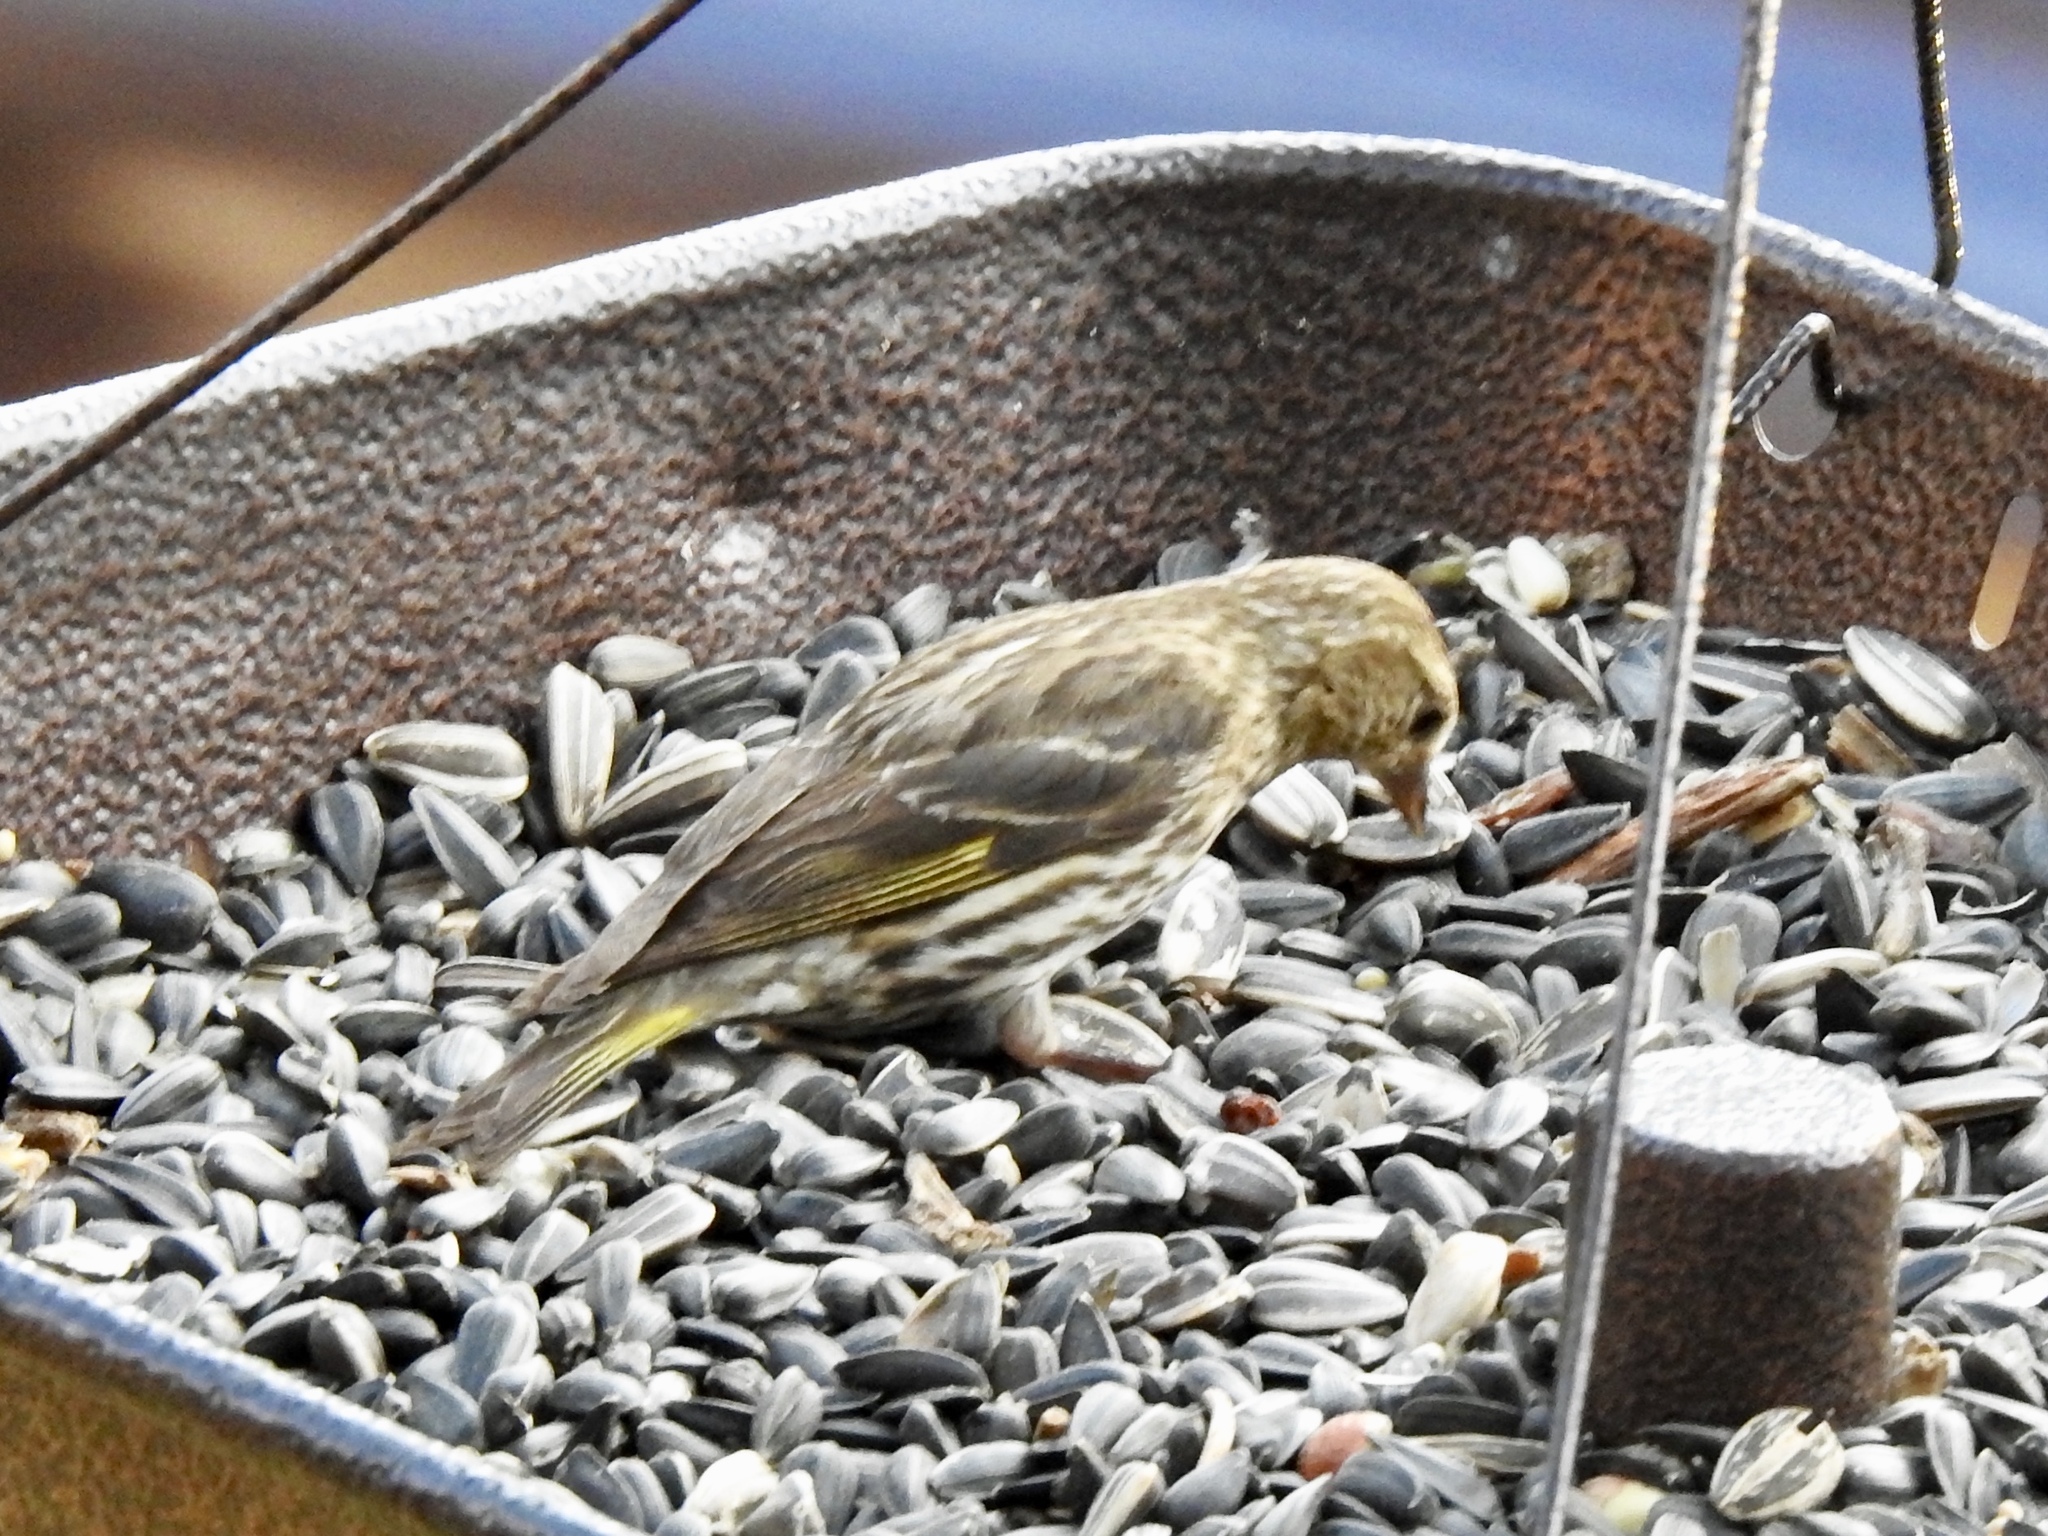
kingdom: Animalia
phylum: Chordata
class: Aves
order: Passeriformes
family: Fringillidae
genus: Spinus
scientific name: Spinus pinus
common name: Pine siskin
